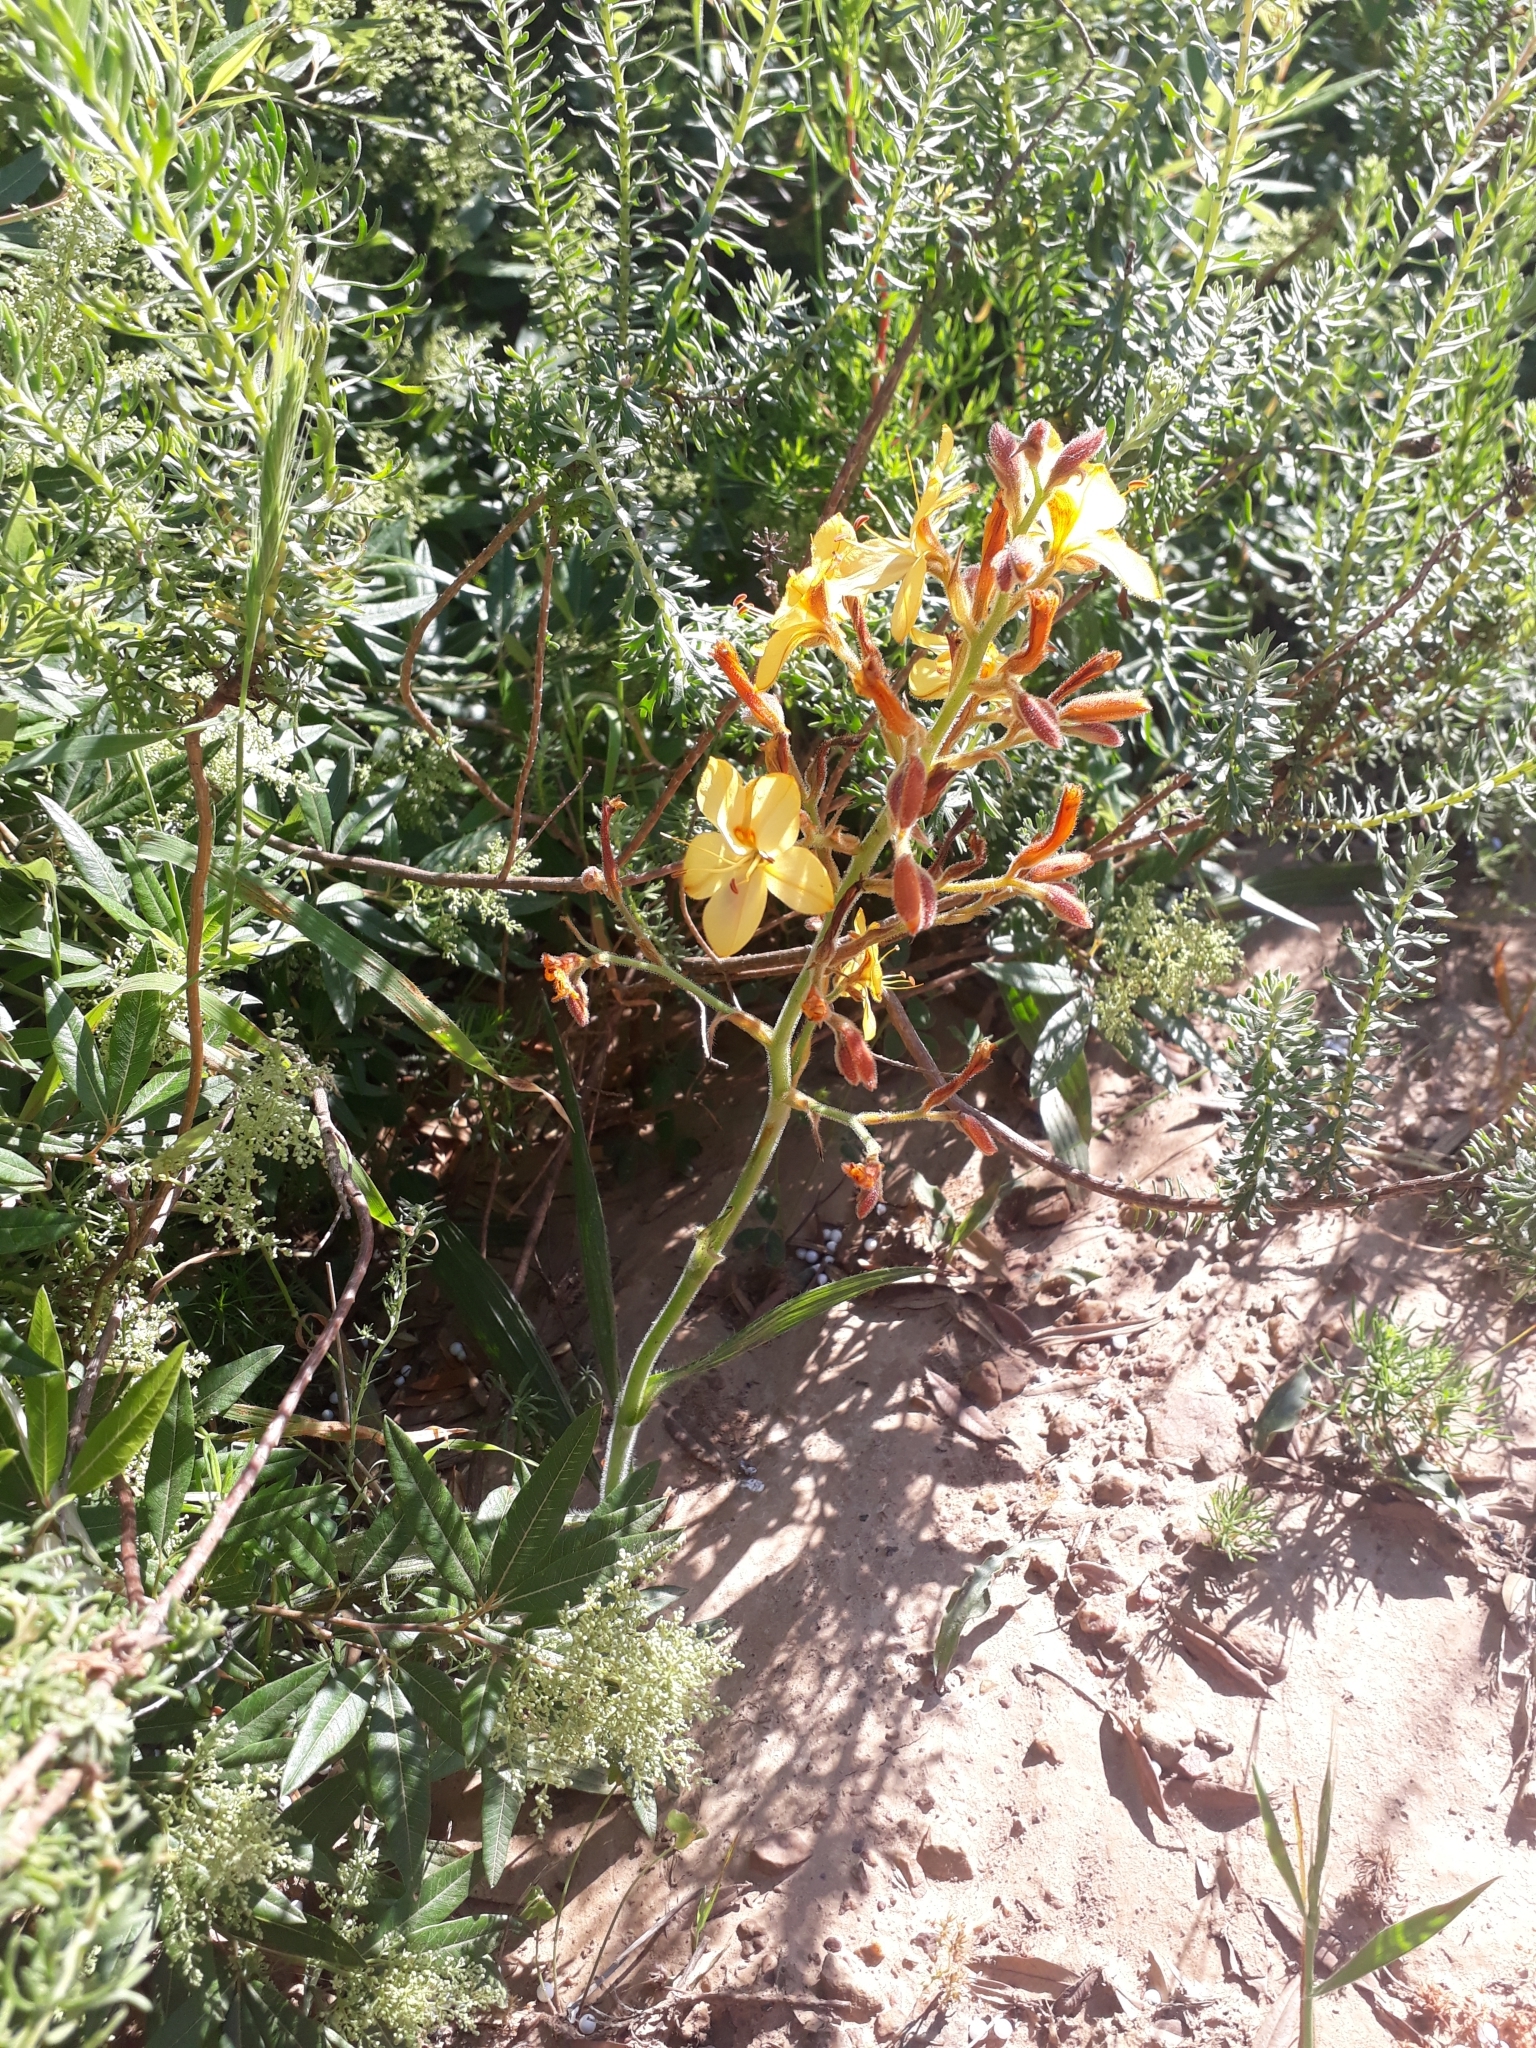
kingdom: Plantae
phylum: Tracheophyta
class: Liliopsida
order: Commelinales
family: Haemodoraceae
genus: Wachendorfia
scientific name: Wachendorfia paniculata
